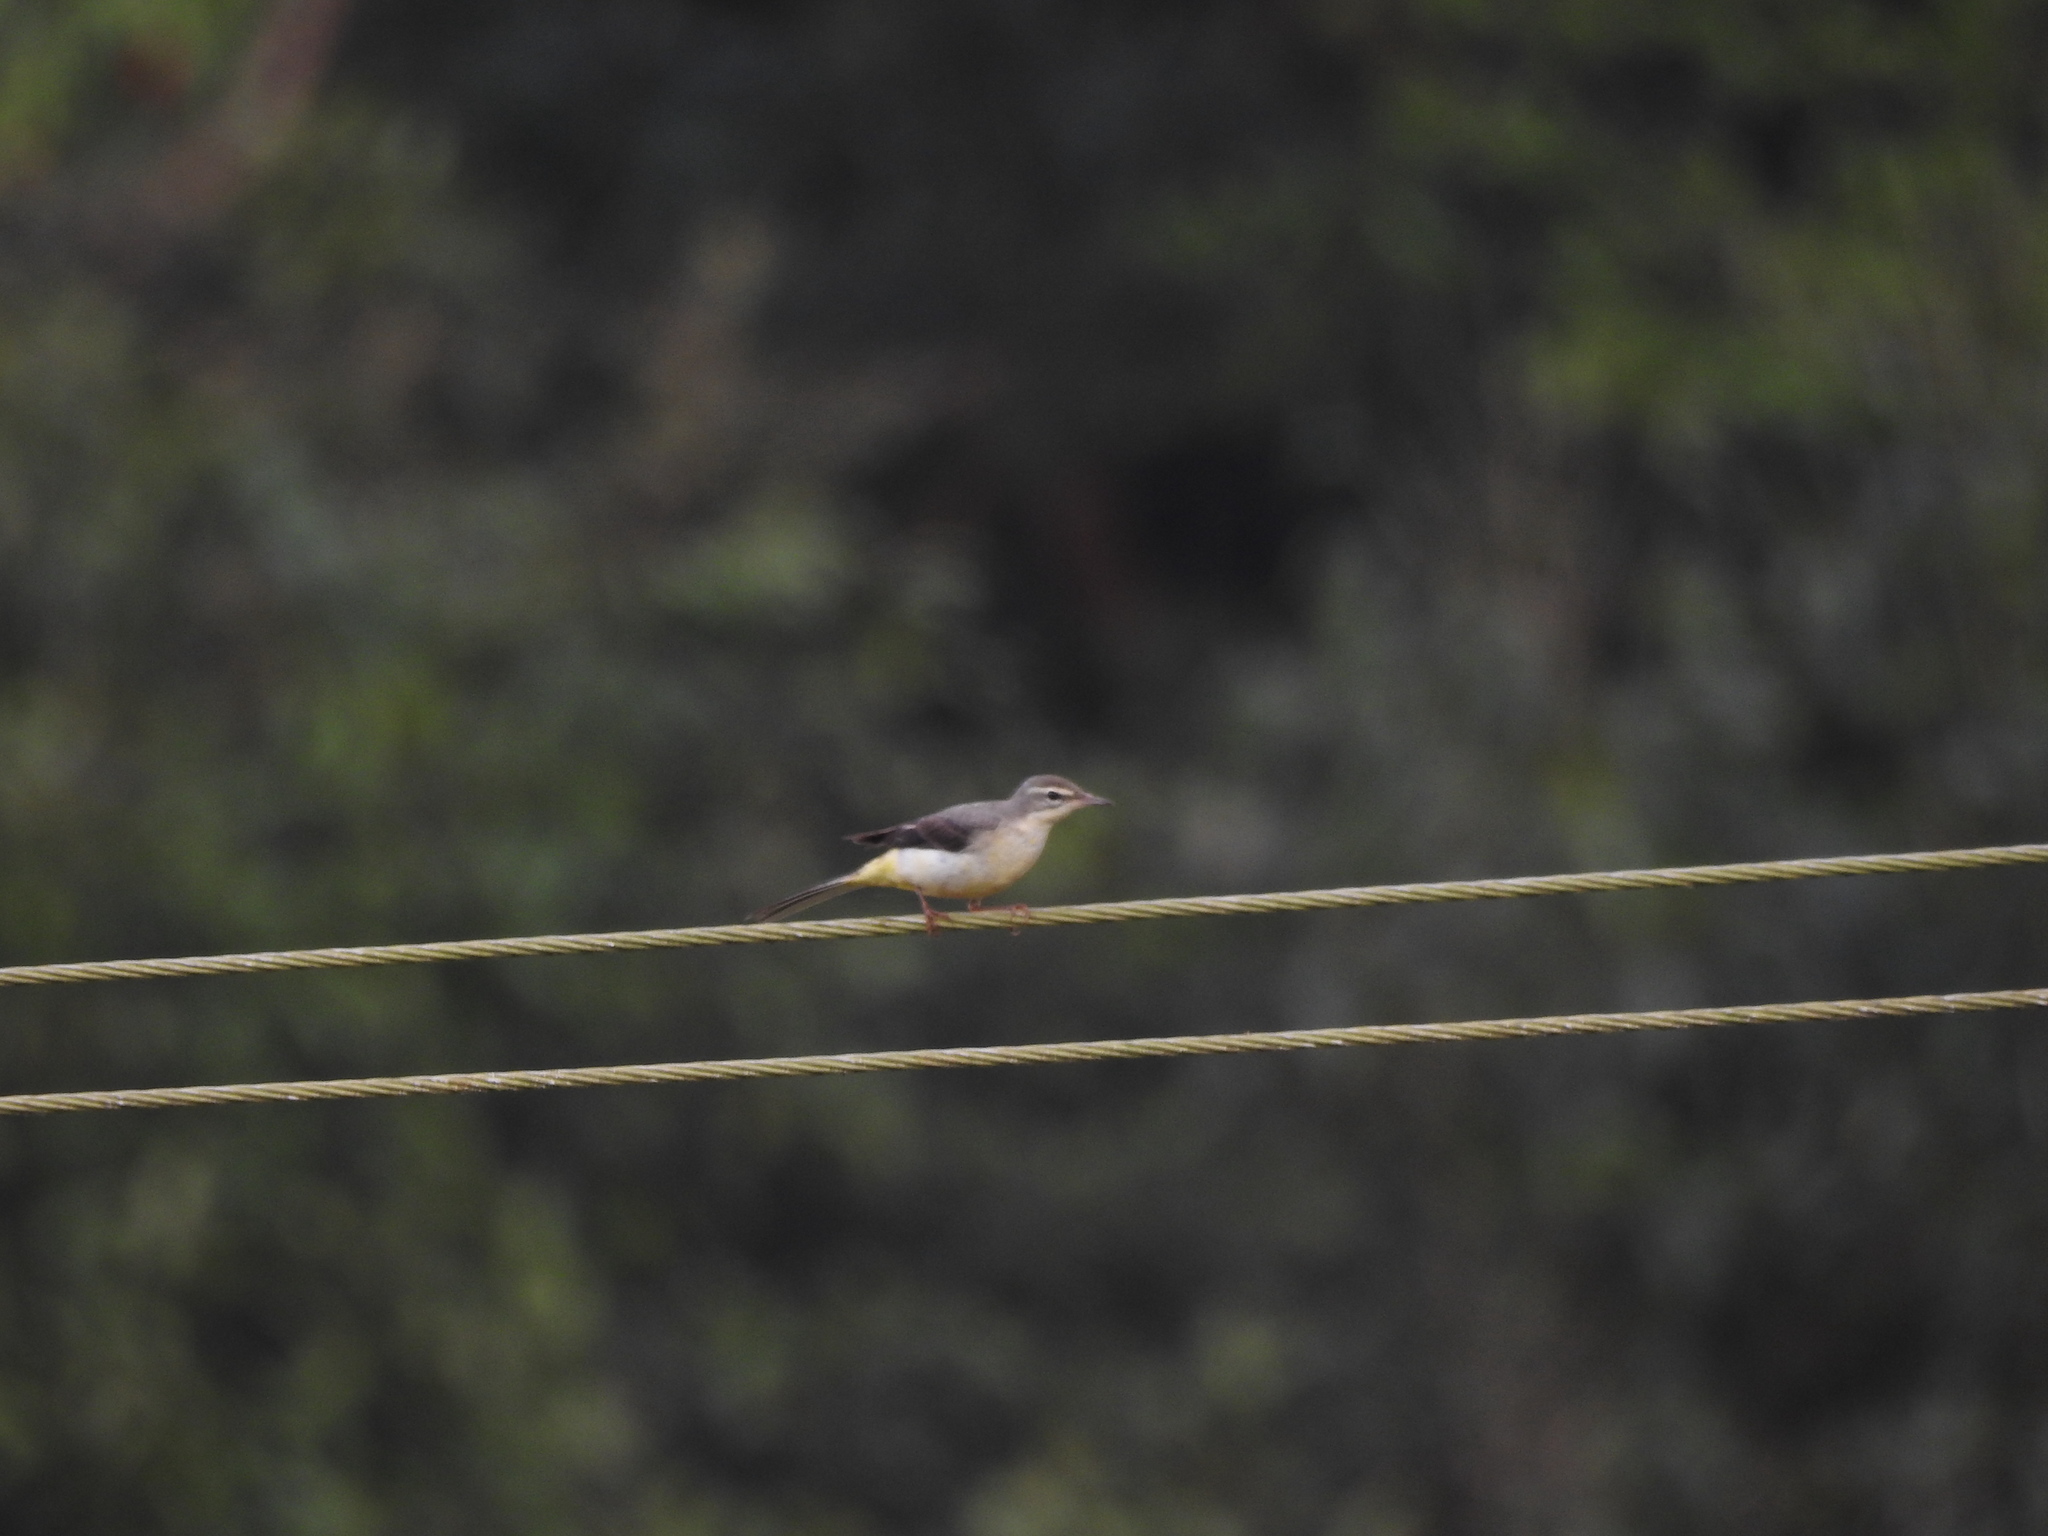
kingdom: Animalia
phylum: Chordata
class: Aves
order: Passeriformes
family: Motacillidae
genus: Motacilla
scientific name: Motacilla cinerea
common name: Grey wagtail
